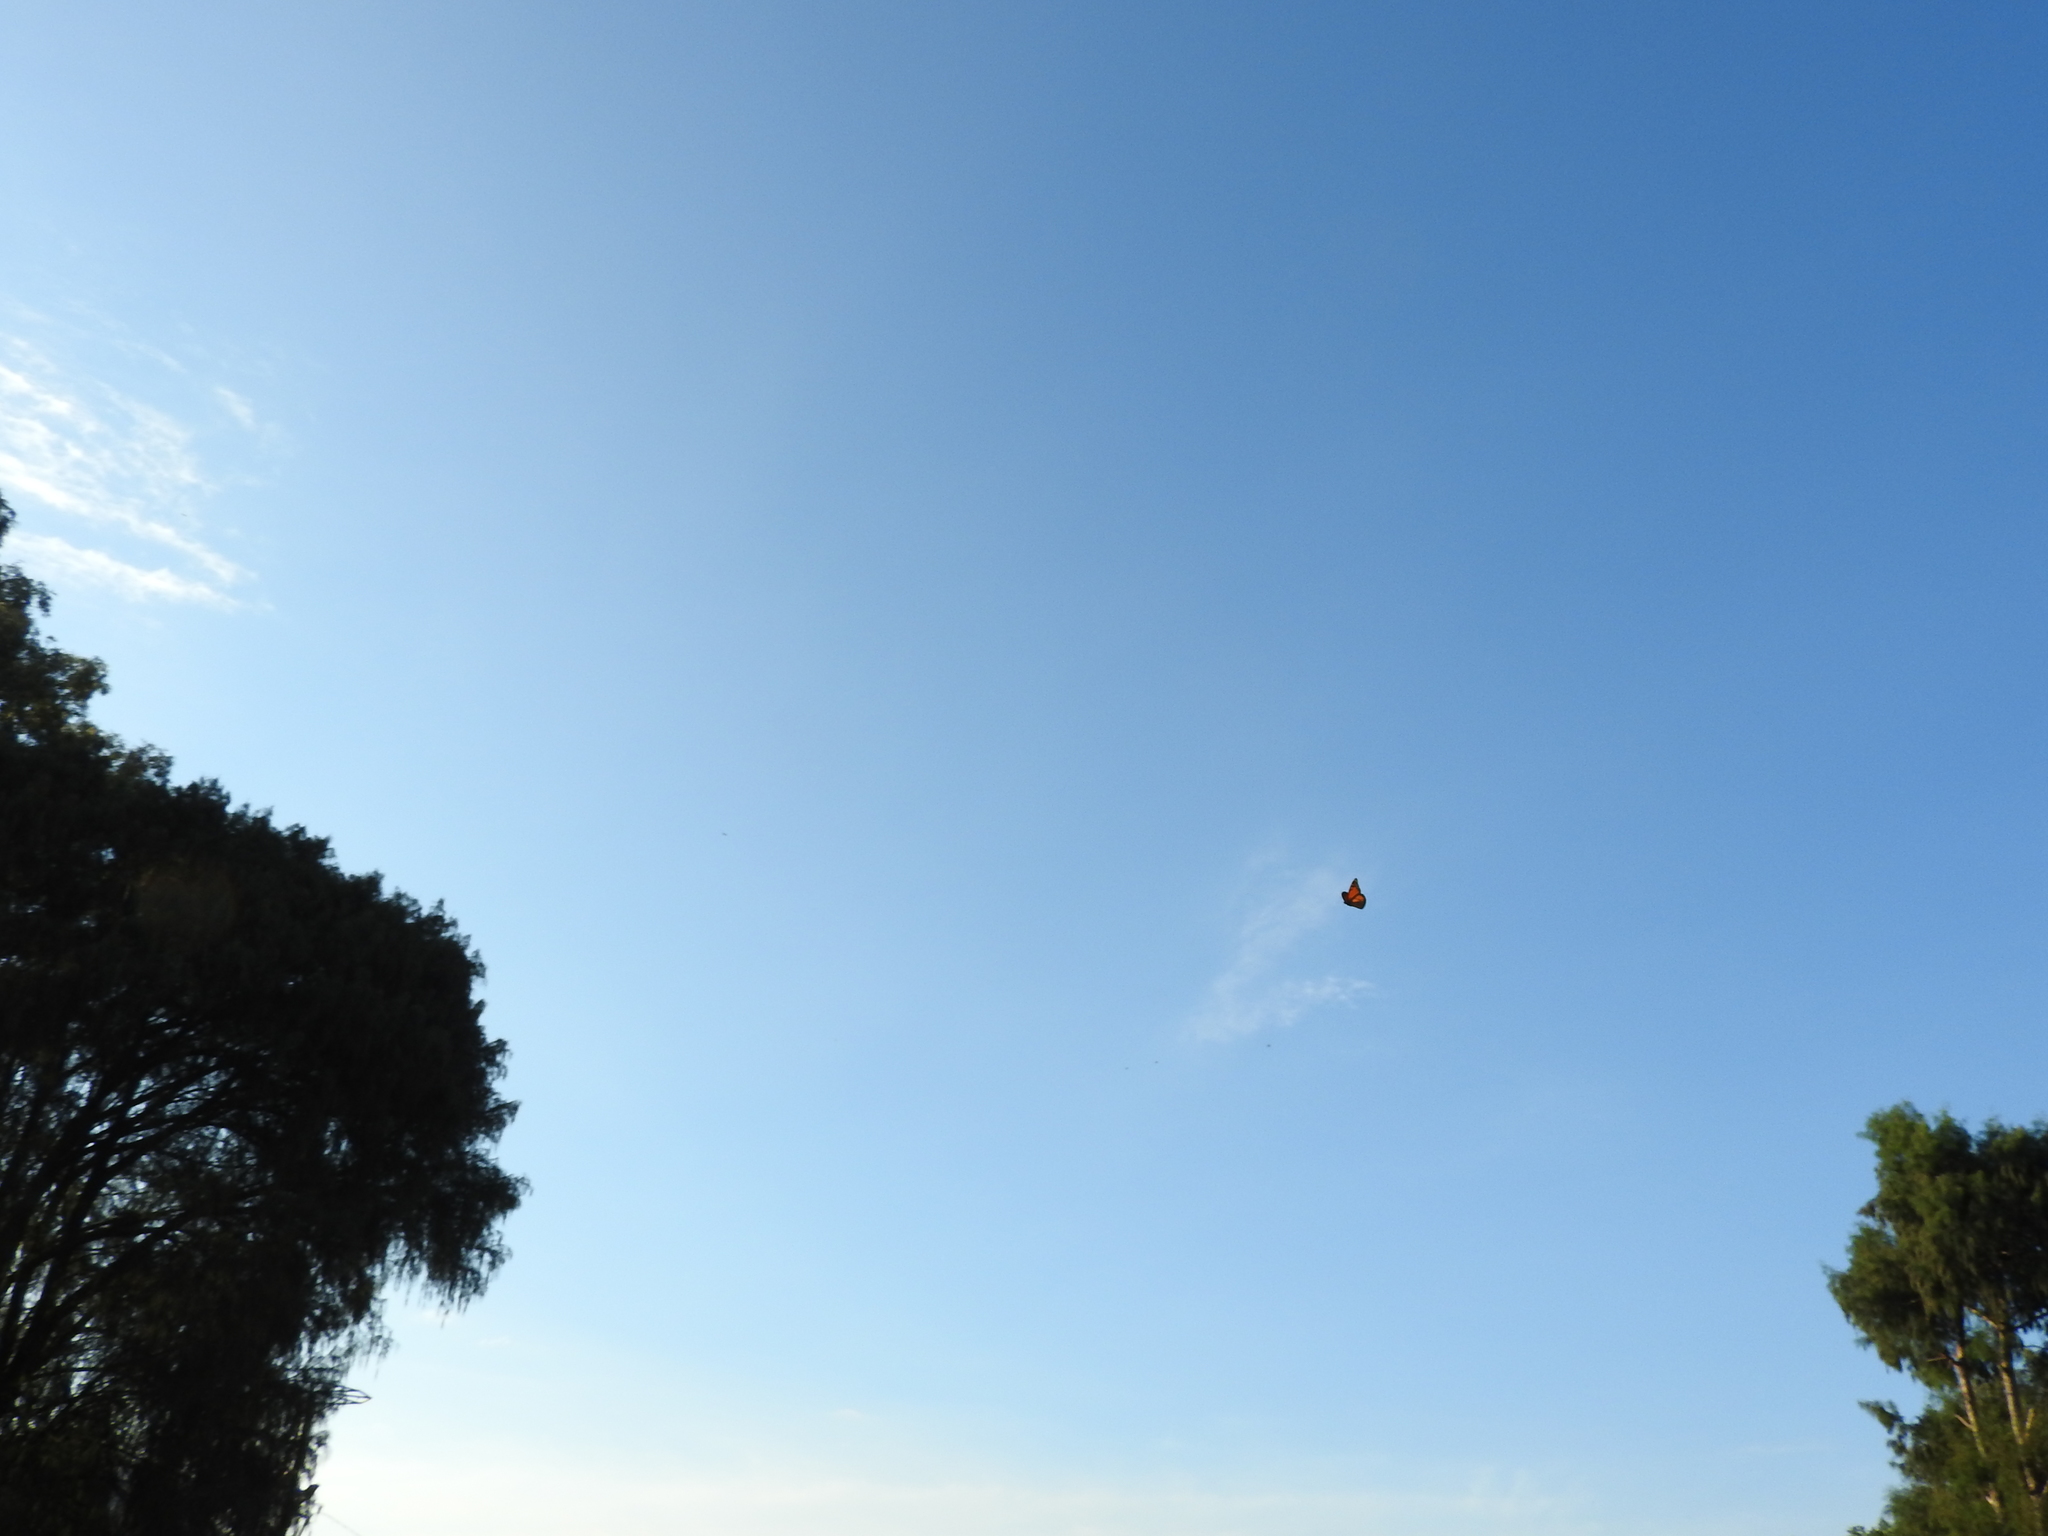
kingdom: Animalia
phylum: Arthropoda
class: Insecta
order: Lepidoptera
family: Nymphalidae
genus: Danaus
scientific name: Danaus plexippus
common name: Monarch
